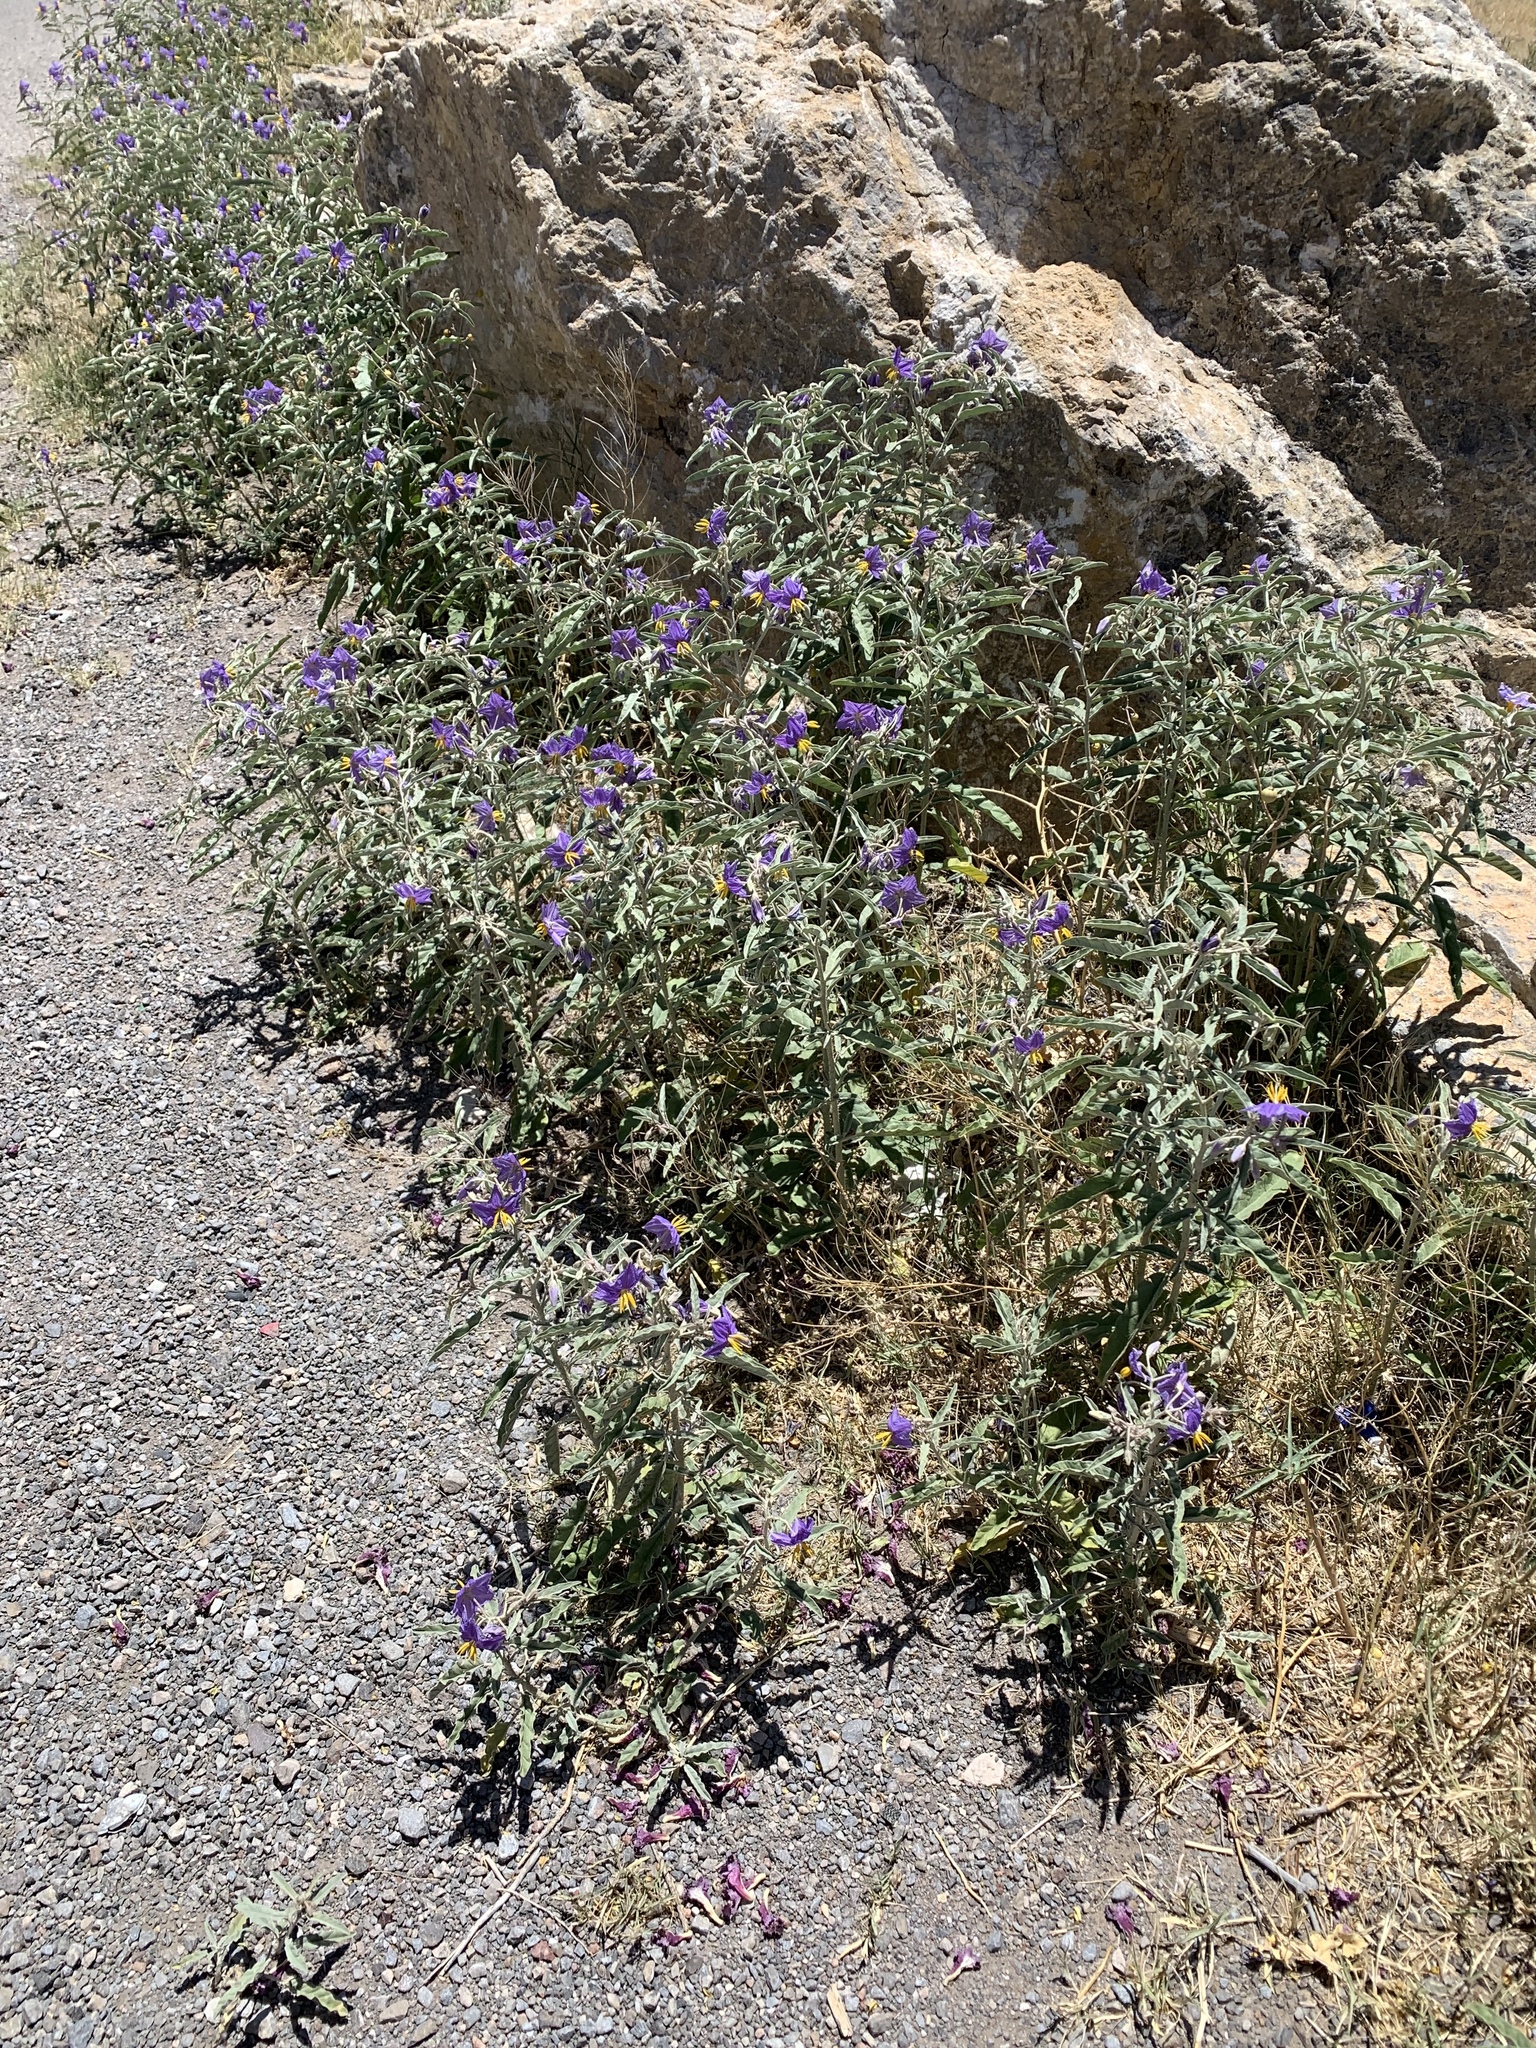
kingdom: Plantae
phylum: Tracheophyta
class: Magnoliopsida
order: Solanales
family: Solanaceae
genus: Solanum
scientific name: Solanum elaeagnifolium
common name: Silverleaf nightshade
